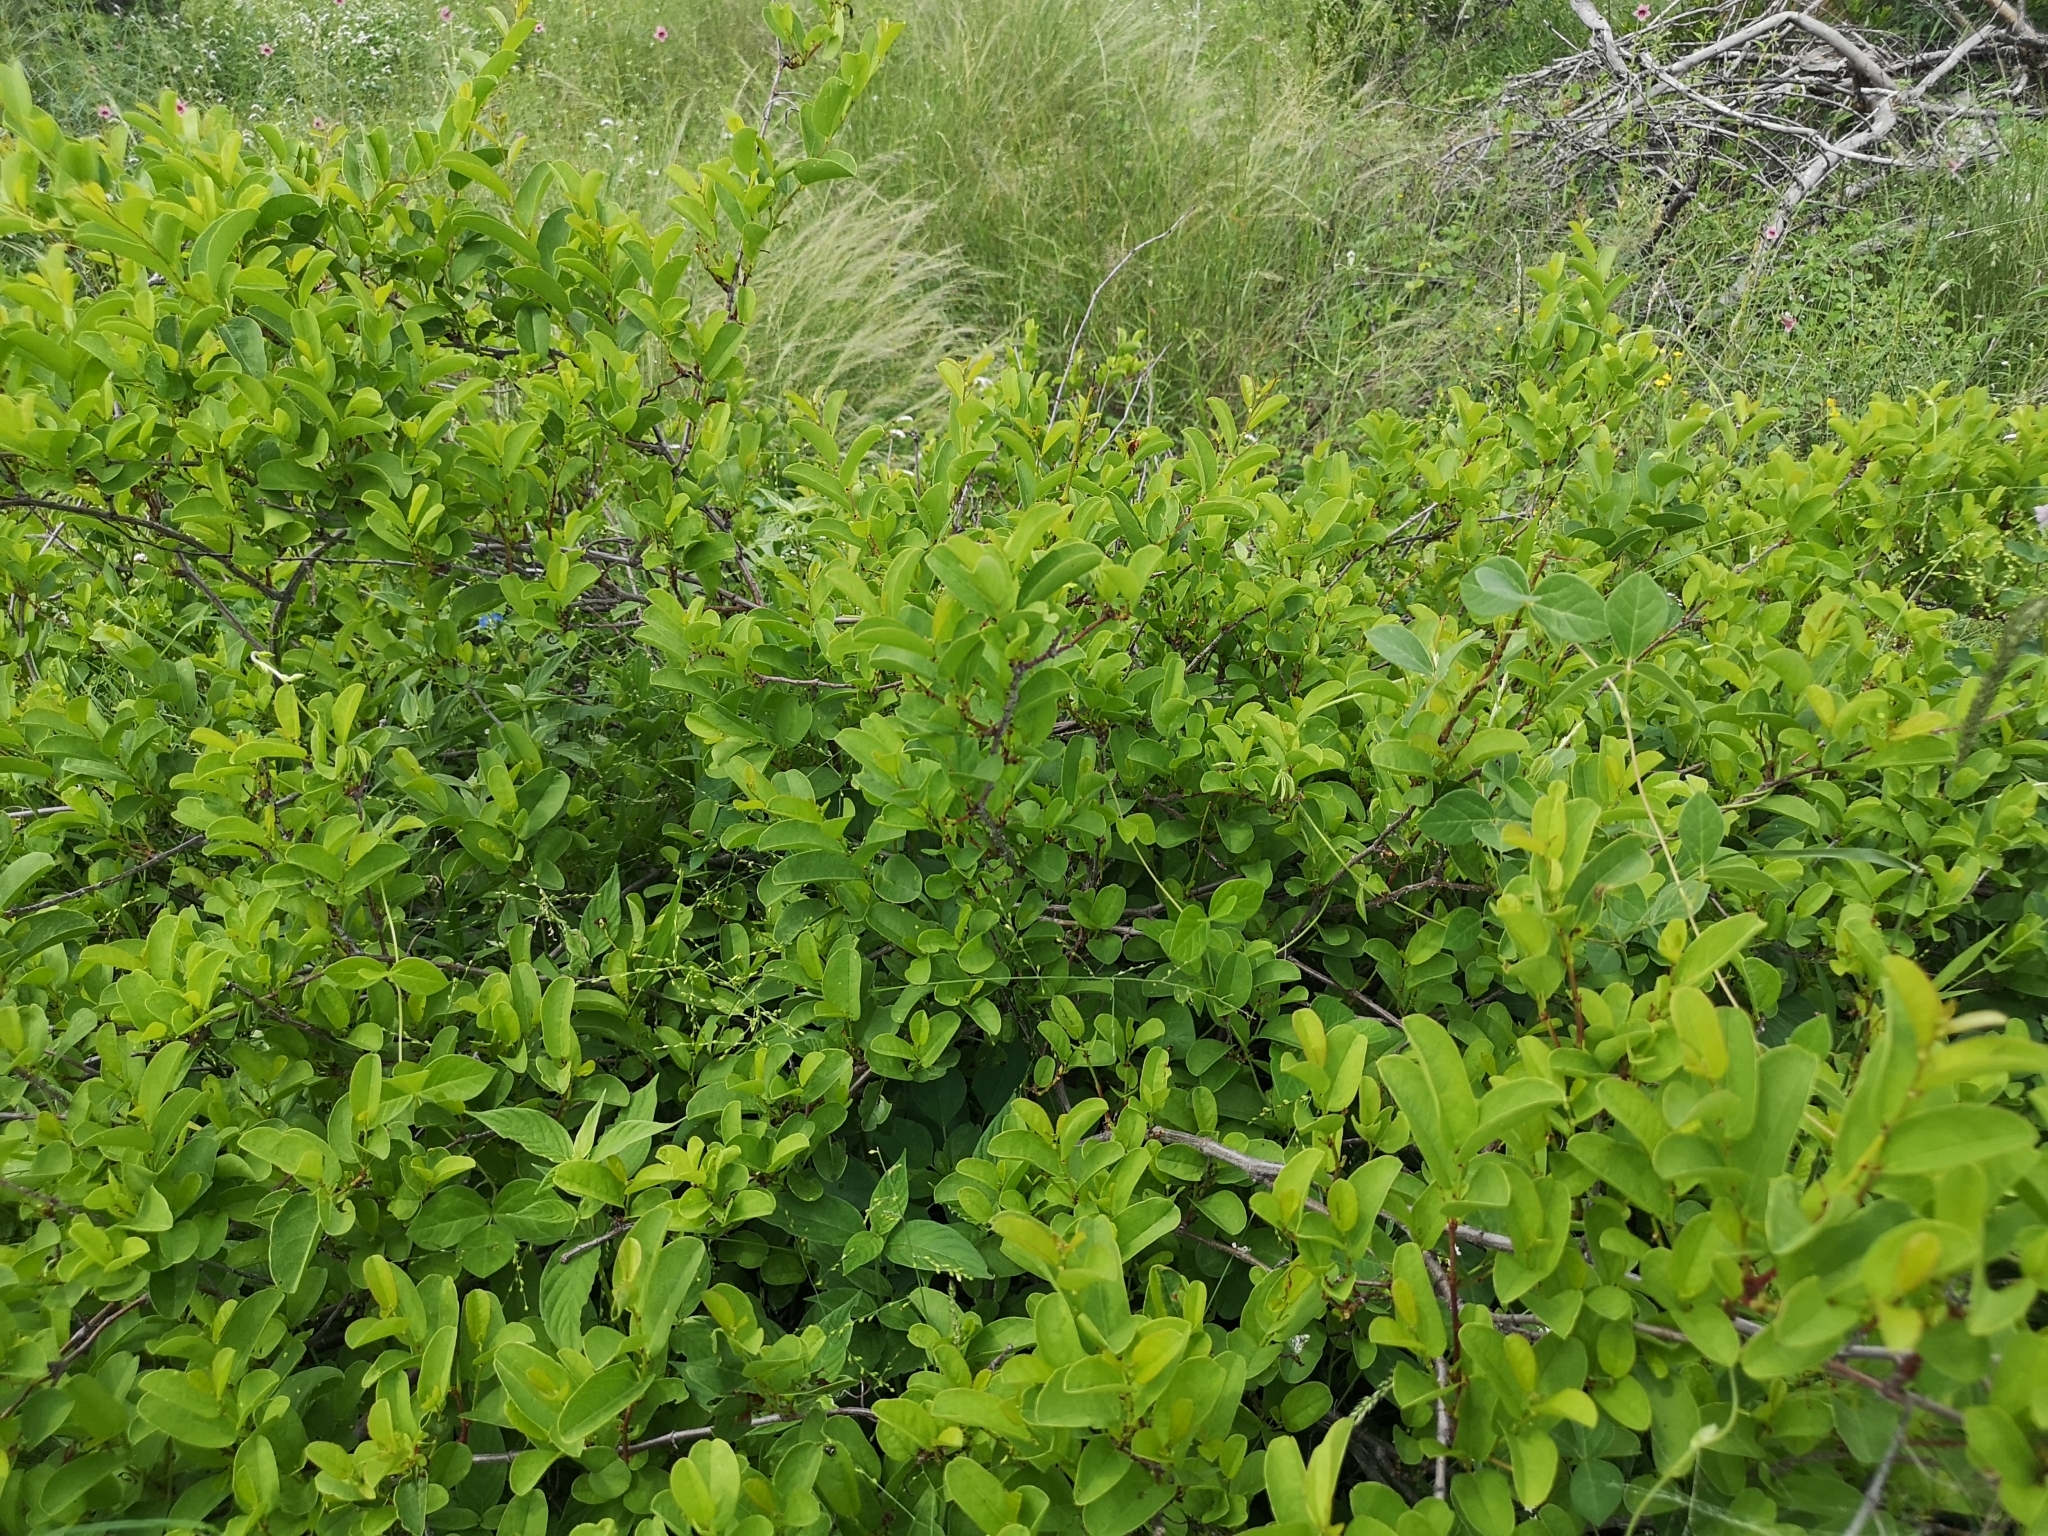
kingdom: Plantae
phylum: Tracheophyta
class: Magnoliopsida
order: Vitales
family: Vitaceae
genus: Cissus
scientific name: Cissus cornifolia
